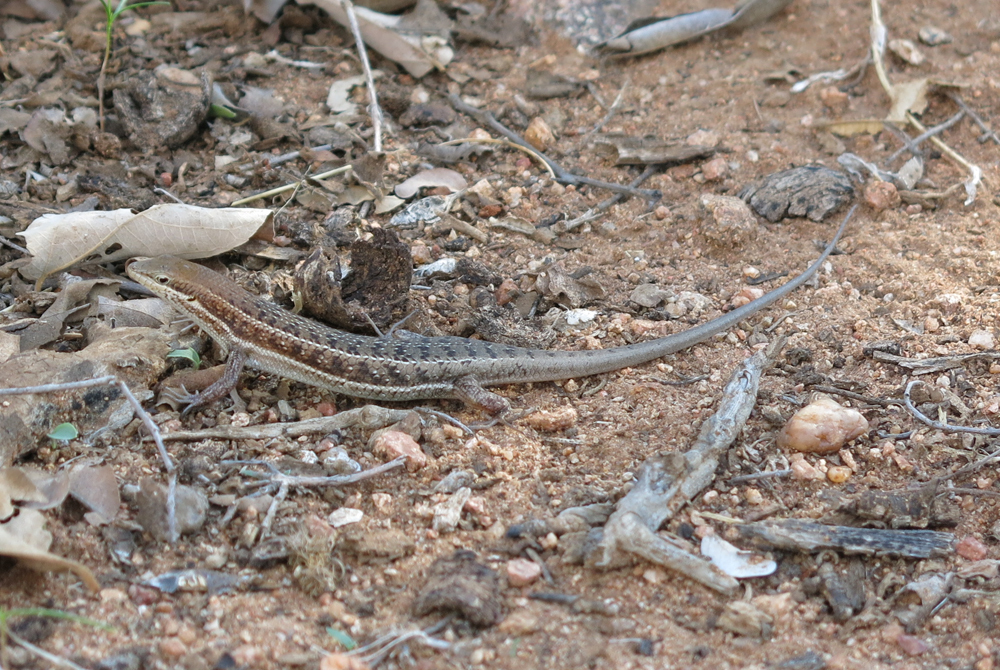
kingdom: Animalia
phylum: Chordata
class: Squamata
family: Scincidae
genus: Trachylepis
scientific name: Trachylepis varia
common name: Eastern variable skink
